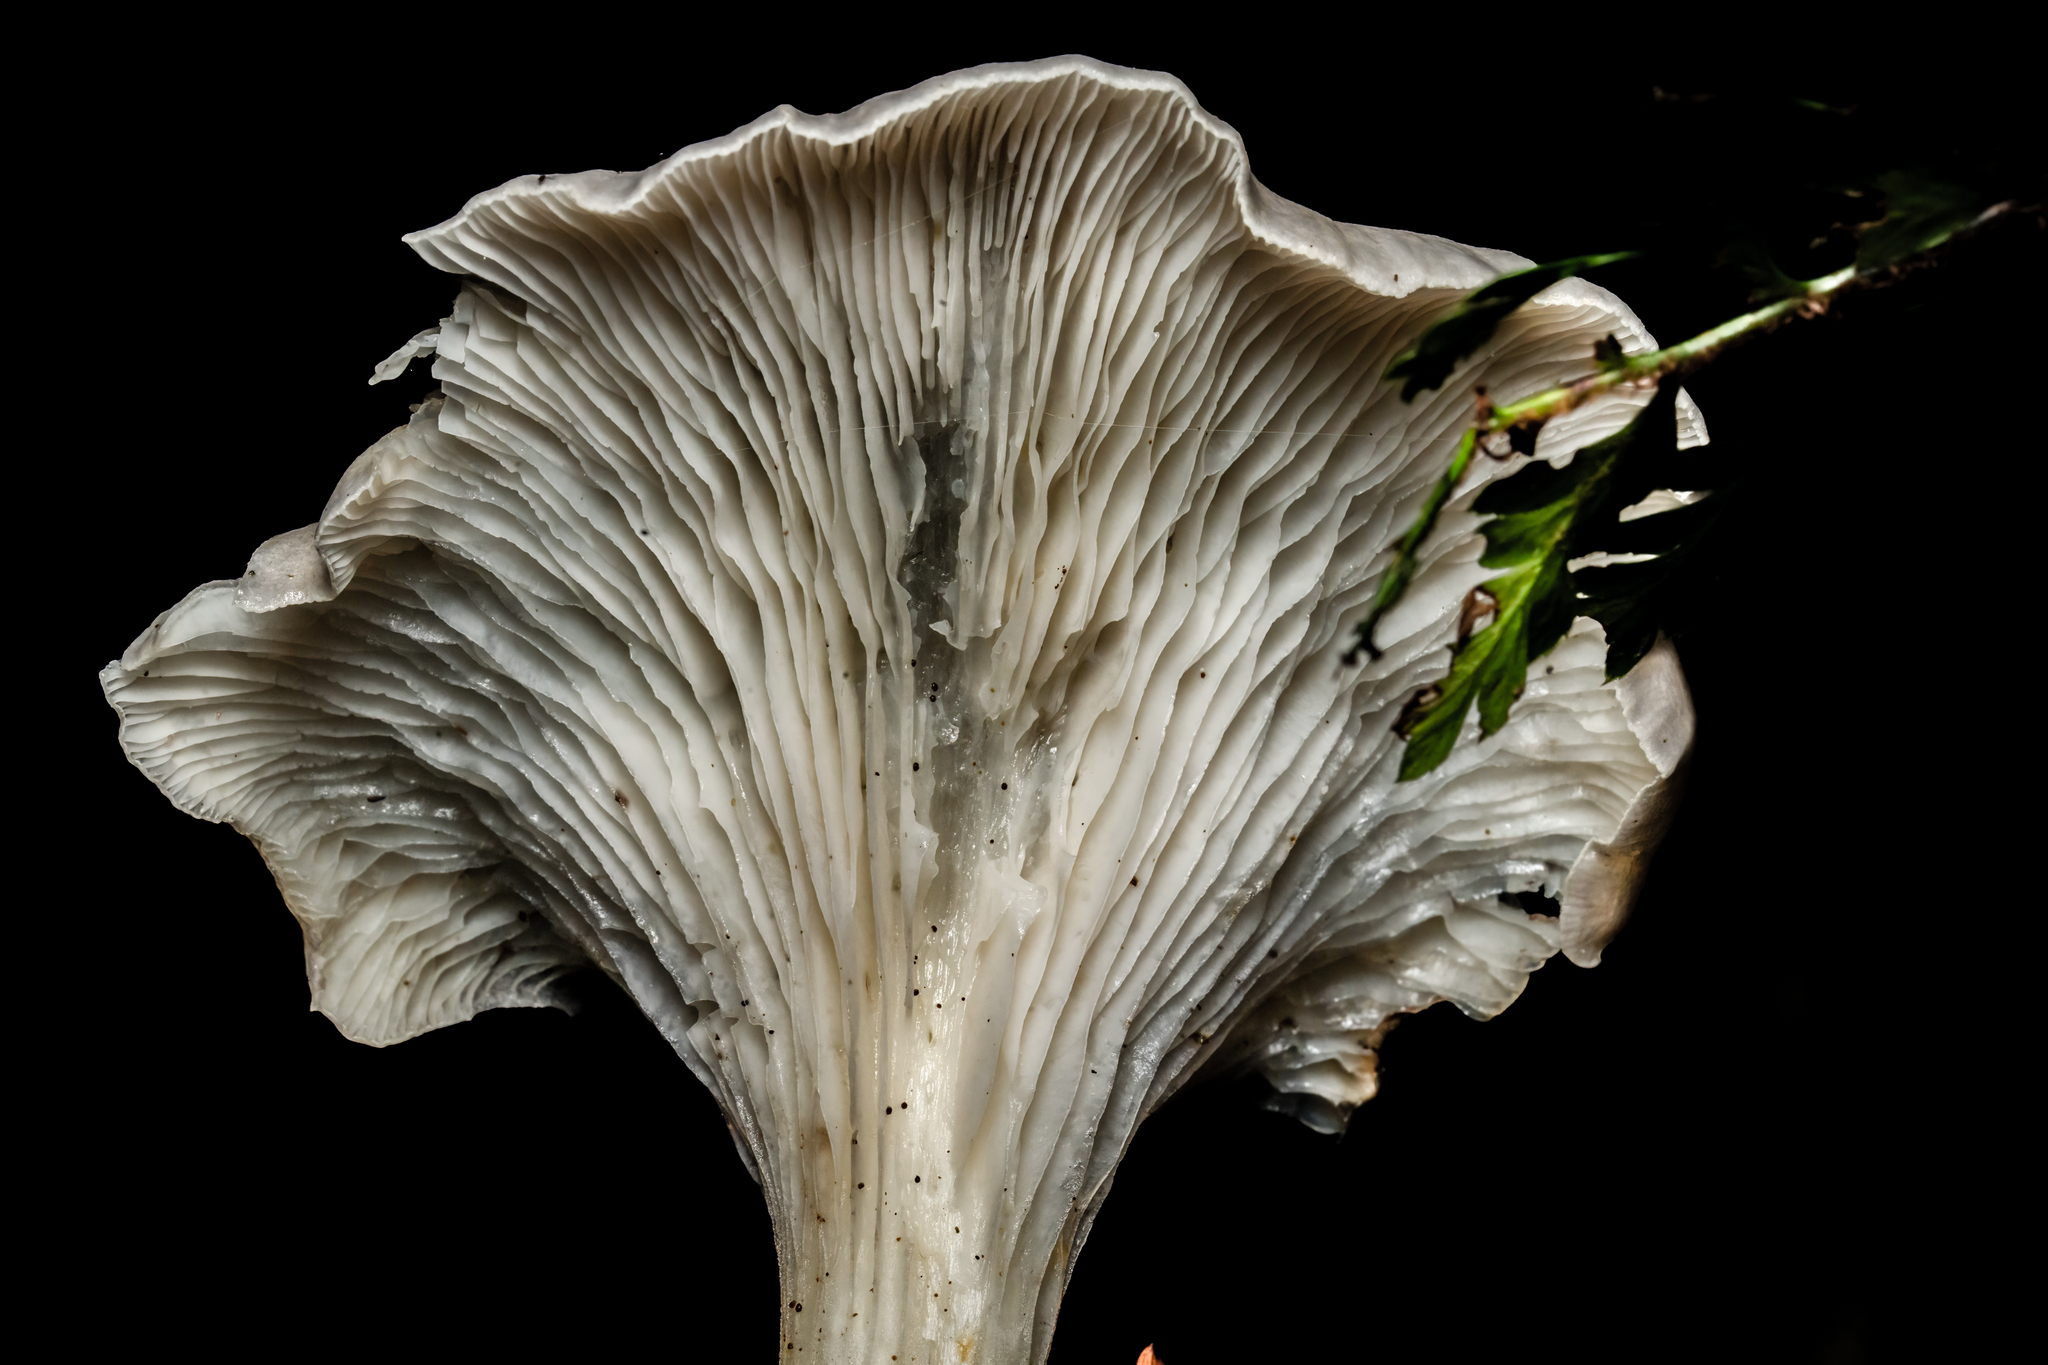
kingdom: Fungi
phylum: Basidiomycota
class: Agaricomycetes
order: Agaricales
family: Omphalotaceae
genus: Omphalotus
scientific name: Omphalotus nidiformis
